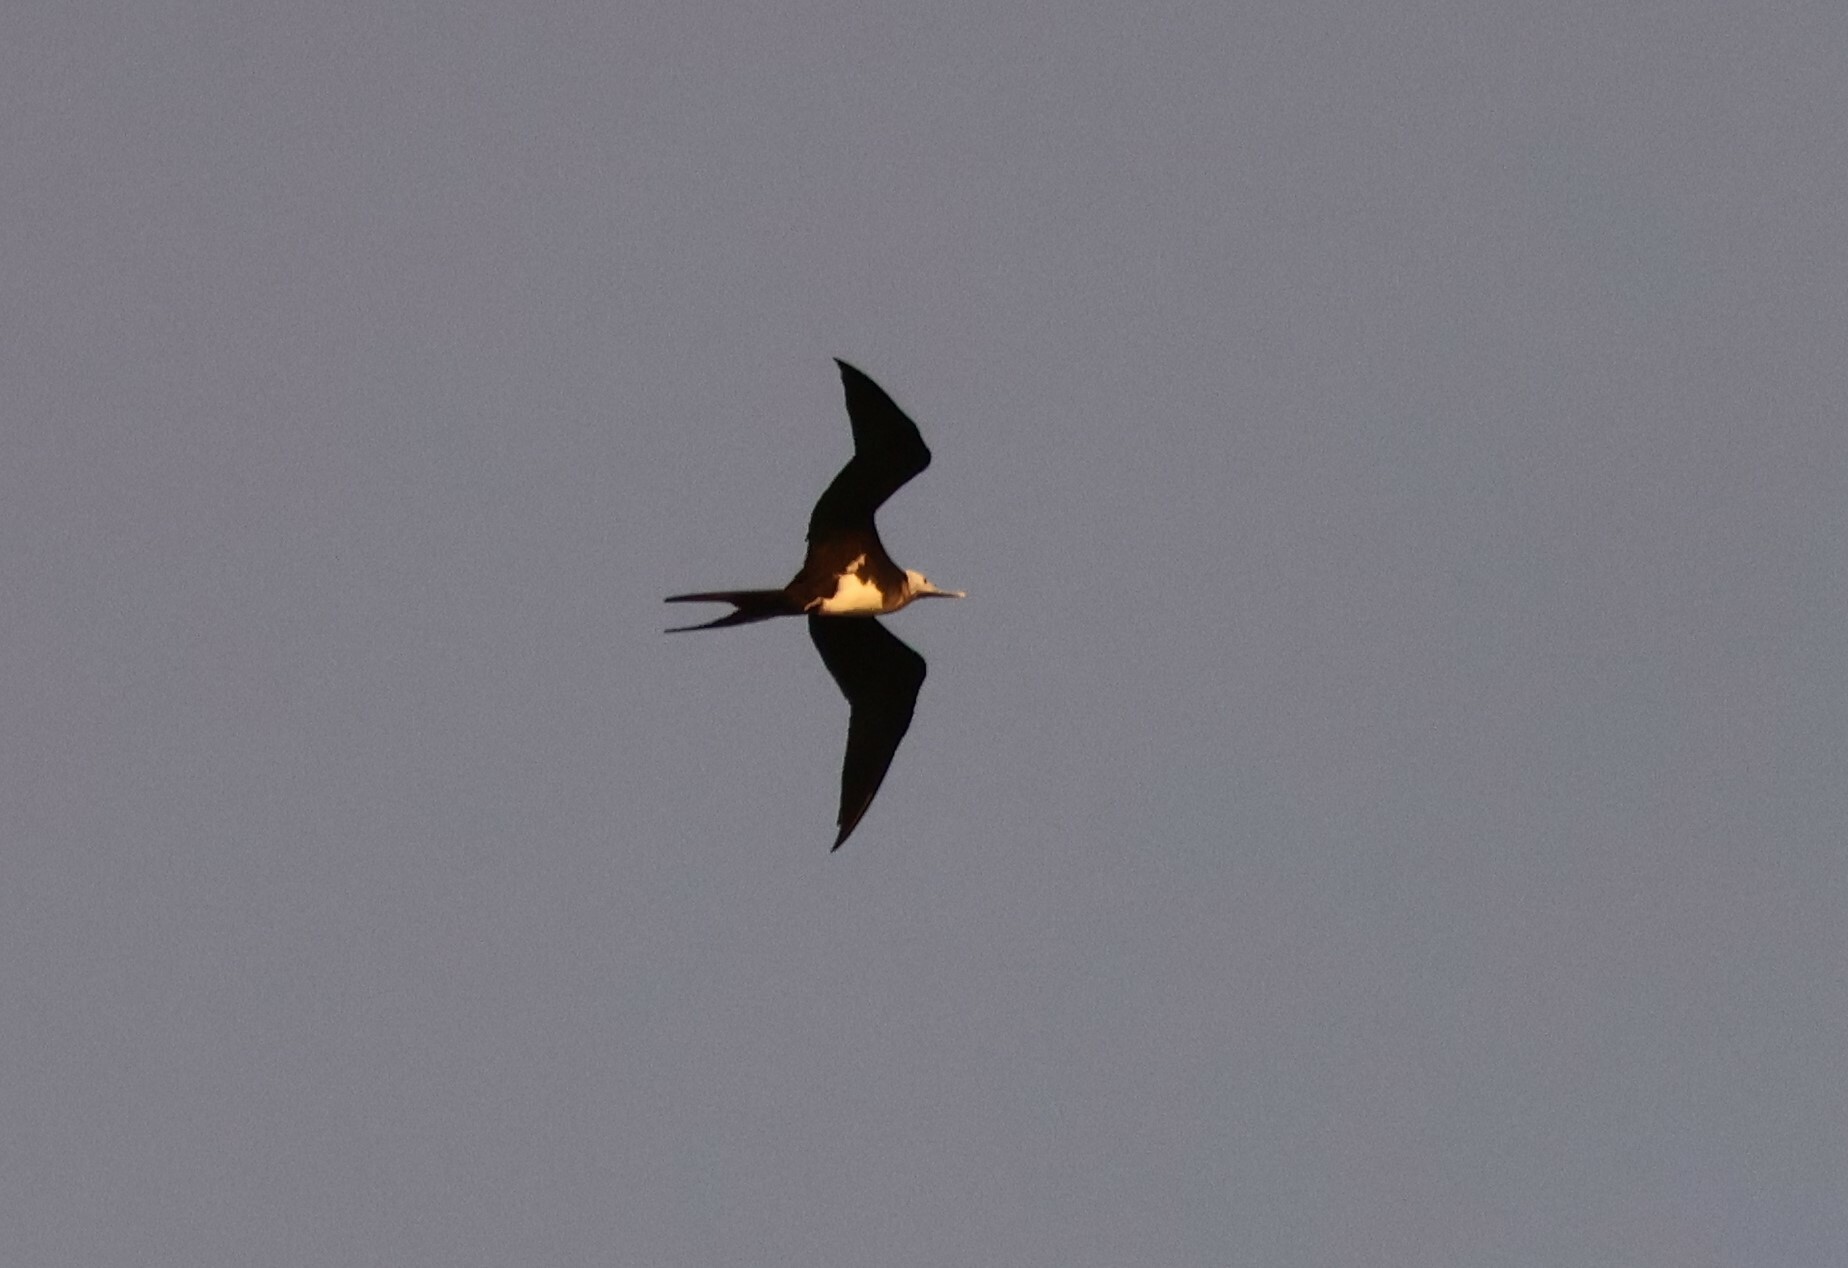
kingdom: Animalia
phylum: Chordata
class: Aves
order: Suliformes
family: Fregatidae
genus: Fregata
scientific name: Fregata minor
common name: Great frigatebird
